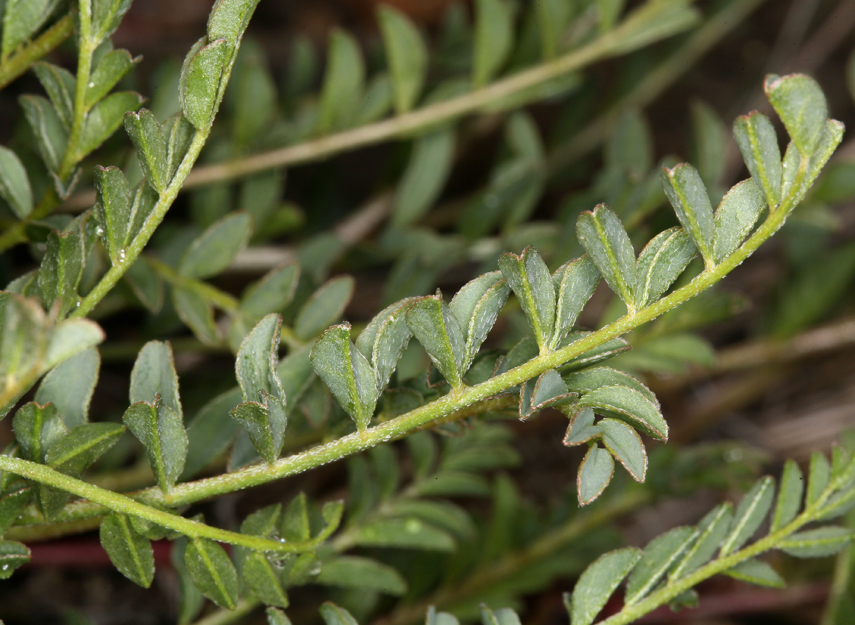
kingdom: Plantae
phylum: Tracheophyta
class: Magnoliopsida
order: Fabales
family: Fabaceae
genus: Astragalus
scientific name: Astragalus lentiginosus
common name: Freckled milkvetch
